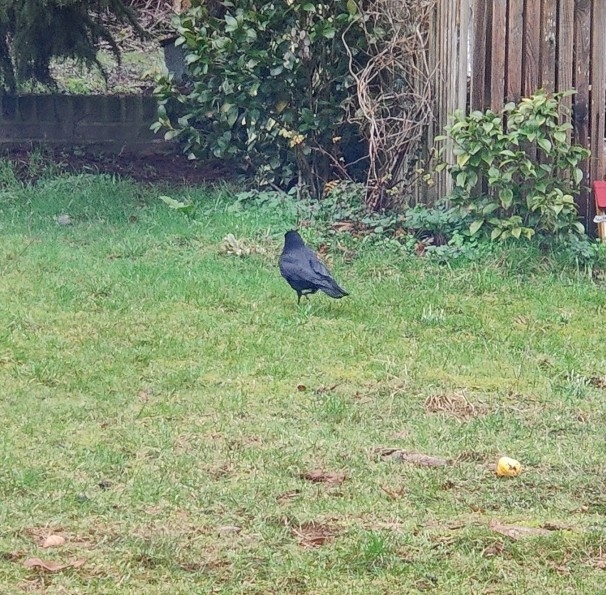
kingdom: Animalia
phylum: Chordata
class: Aves
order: Passeriformes
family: Corvidae
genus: Corvus
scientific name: Corvus corone
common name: Carrion crow
